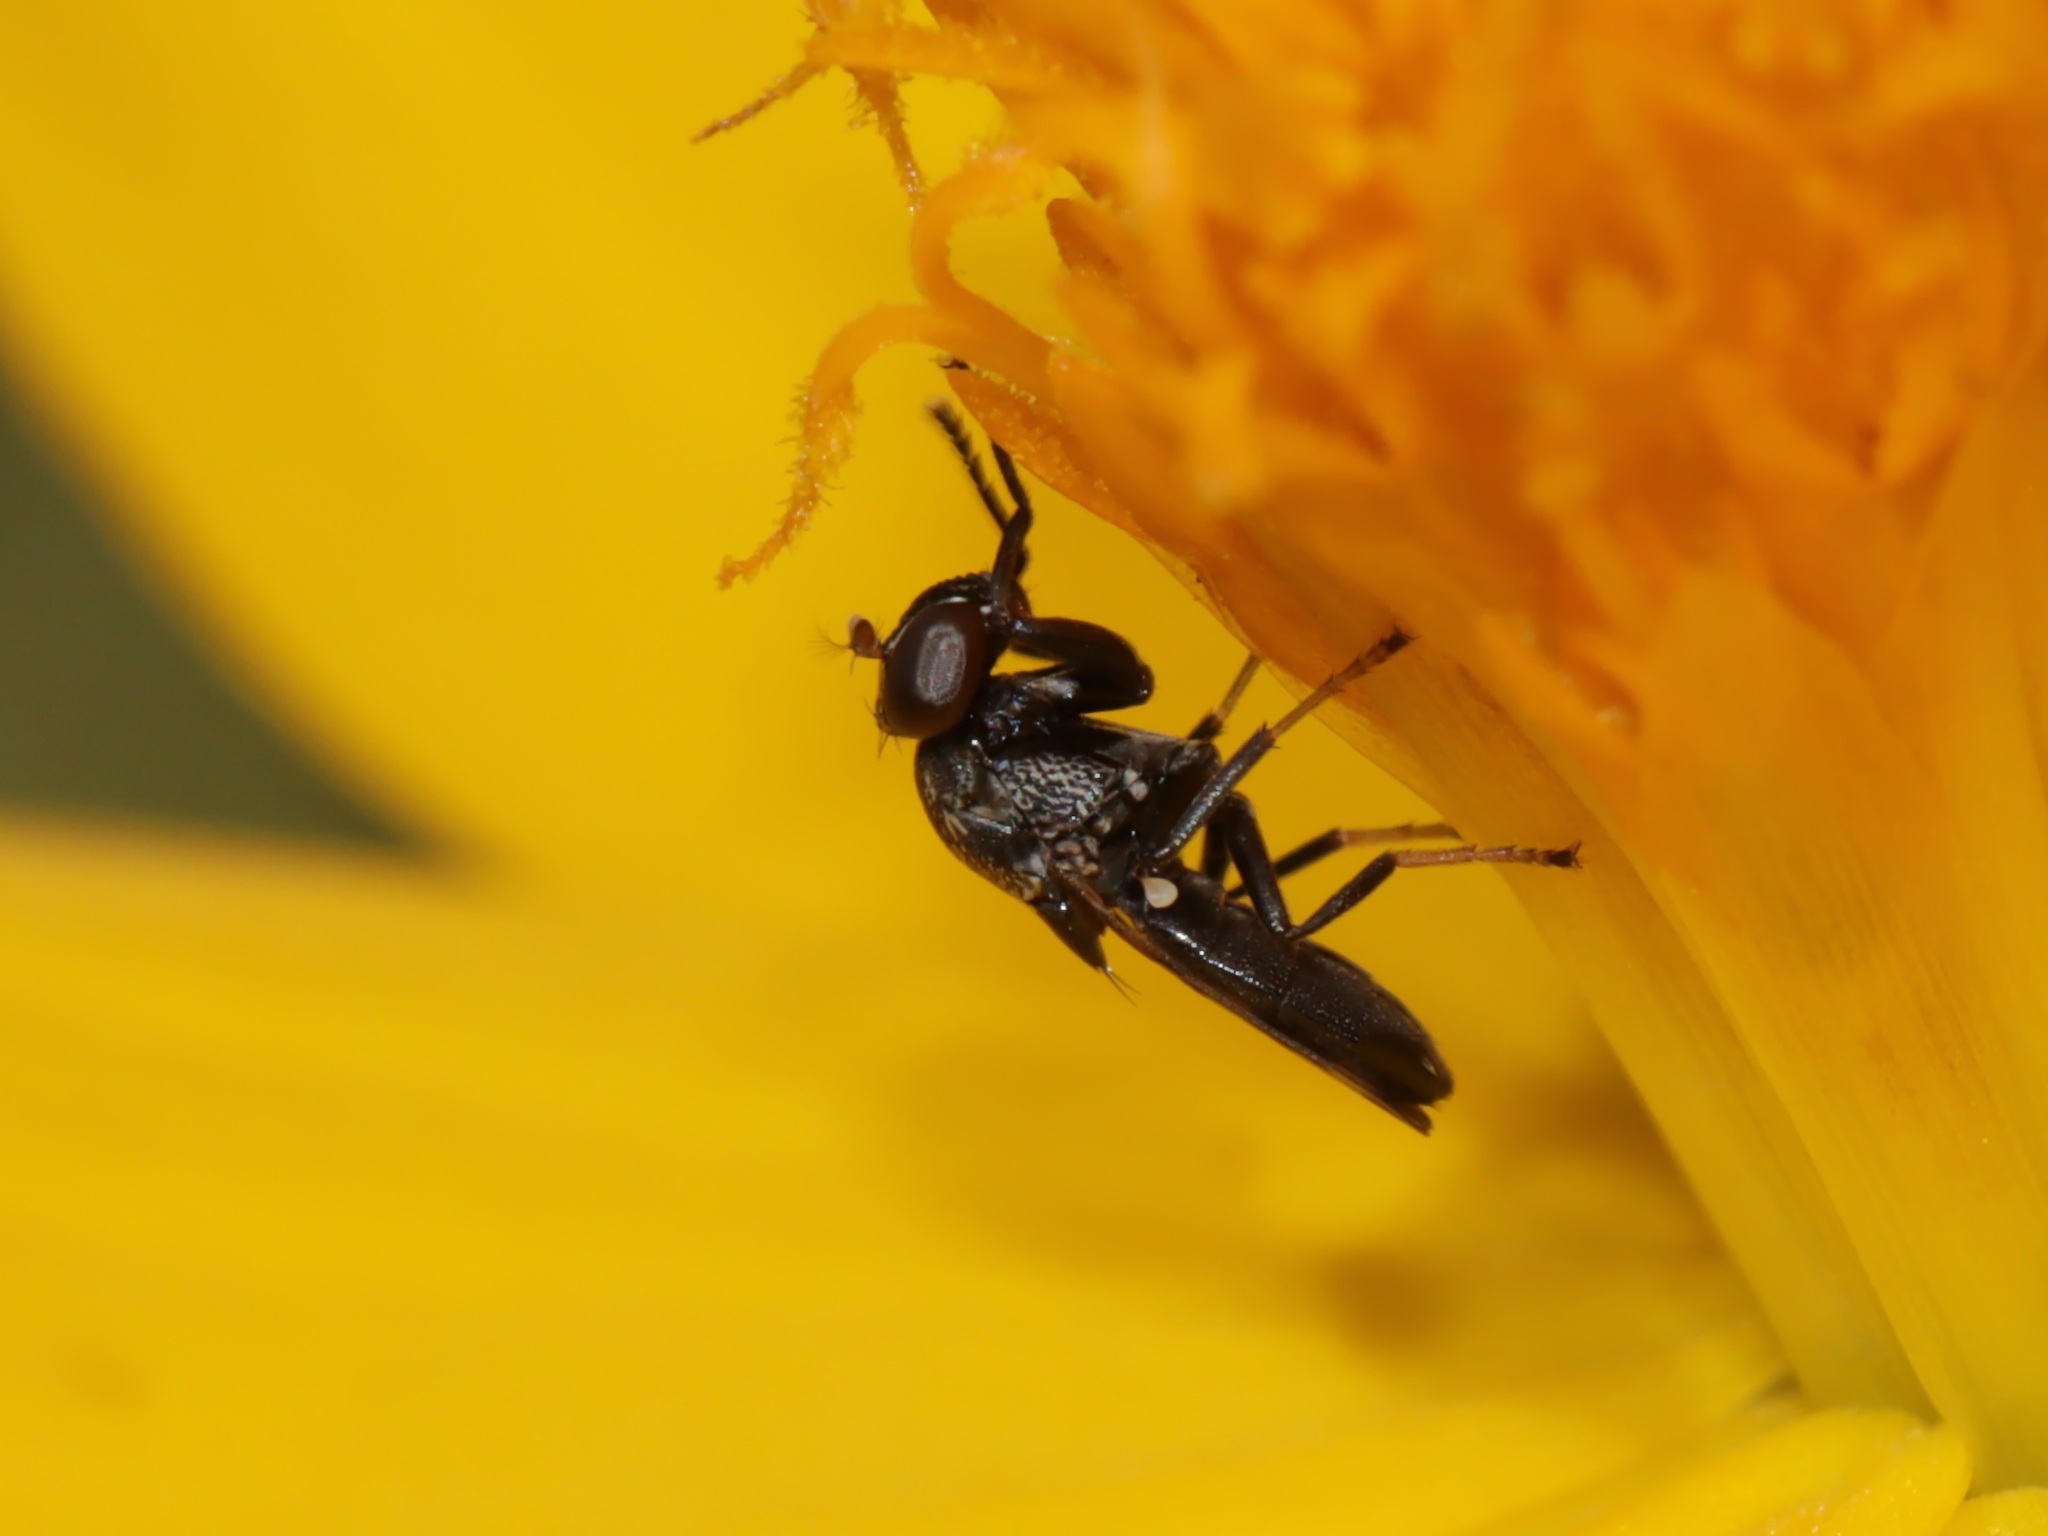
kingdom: Animalia
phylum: Arthropoda
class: Insecta
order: Diptera
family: Ephydridae
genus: Discomyza
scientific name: Discomyza maculipennis
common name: Shore fly
